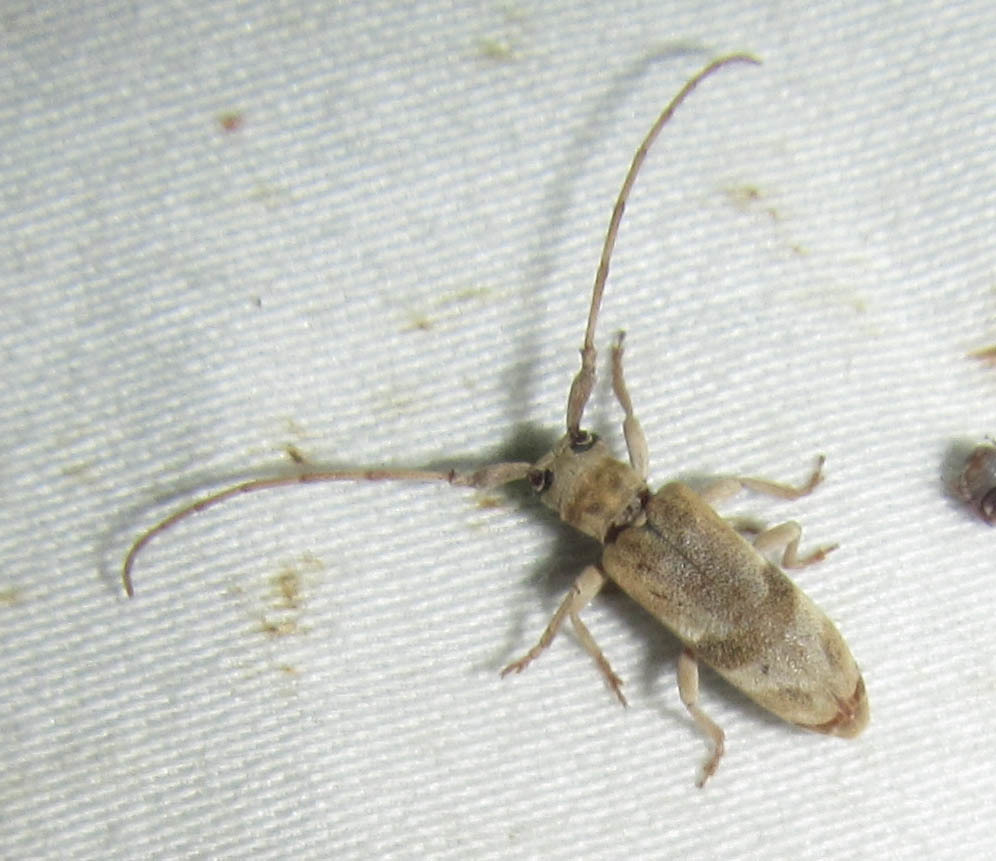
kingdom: Animalia
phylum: Arthropoda
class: Insecta
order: Coleoptera
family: Cerambycidae
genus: Eunidia
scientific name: Eunidia vagevittata
